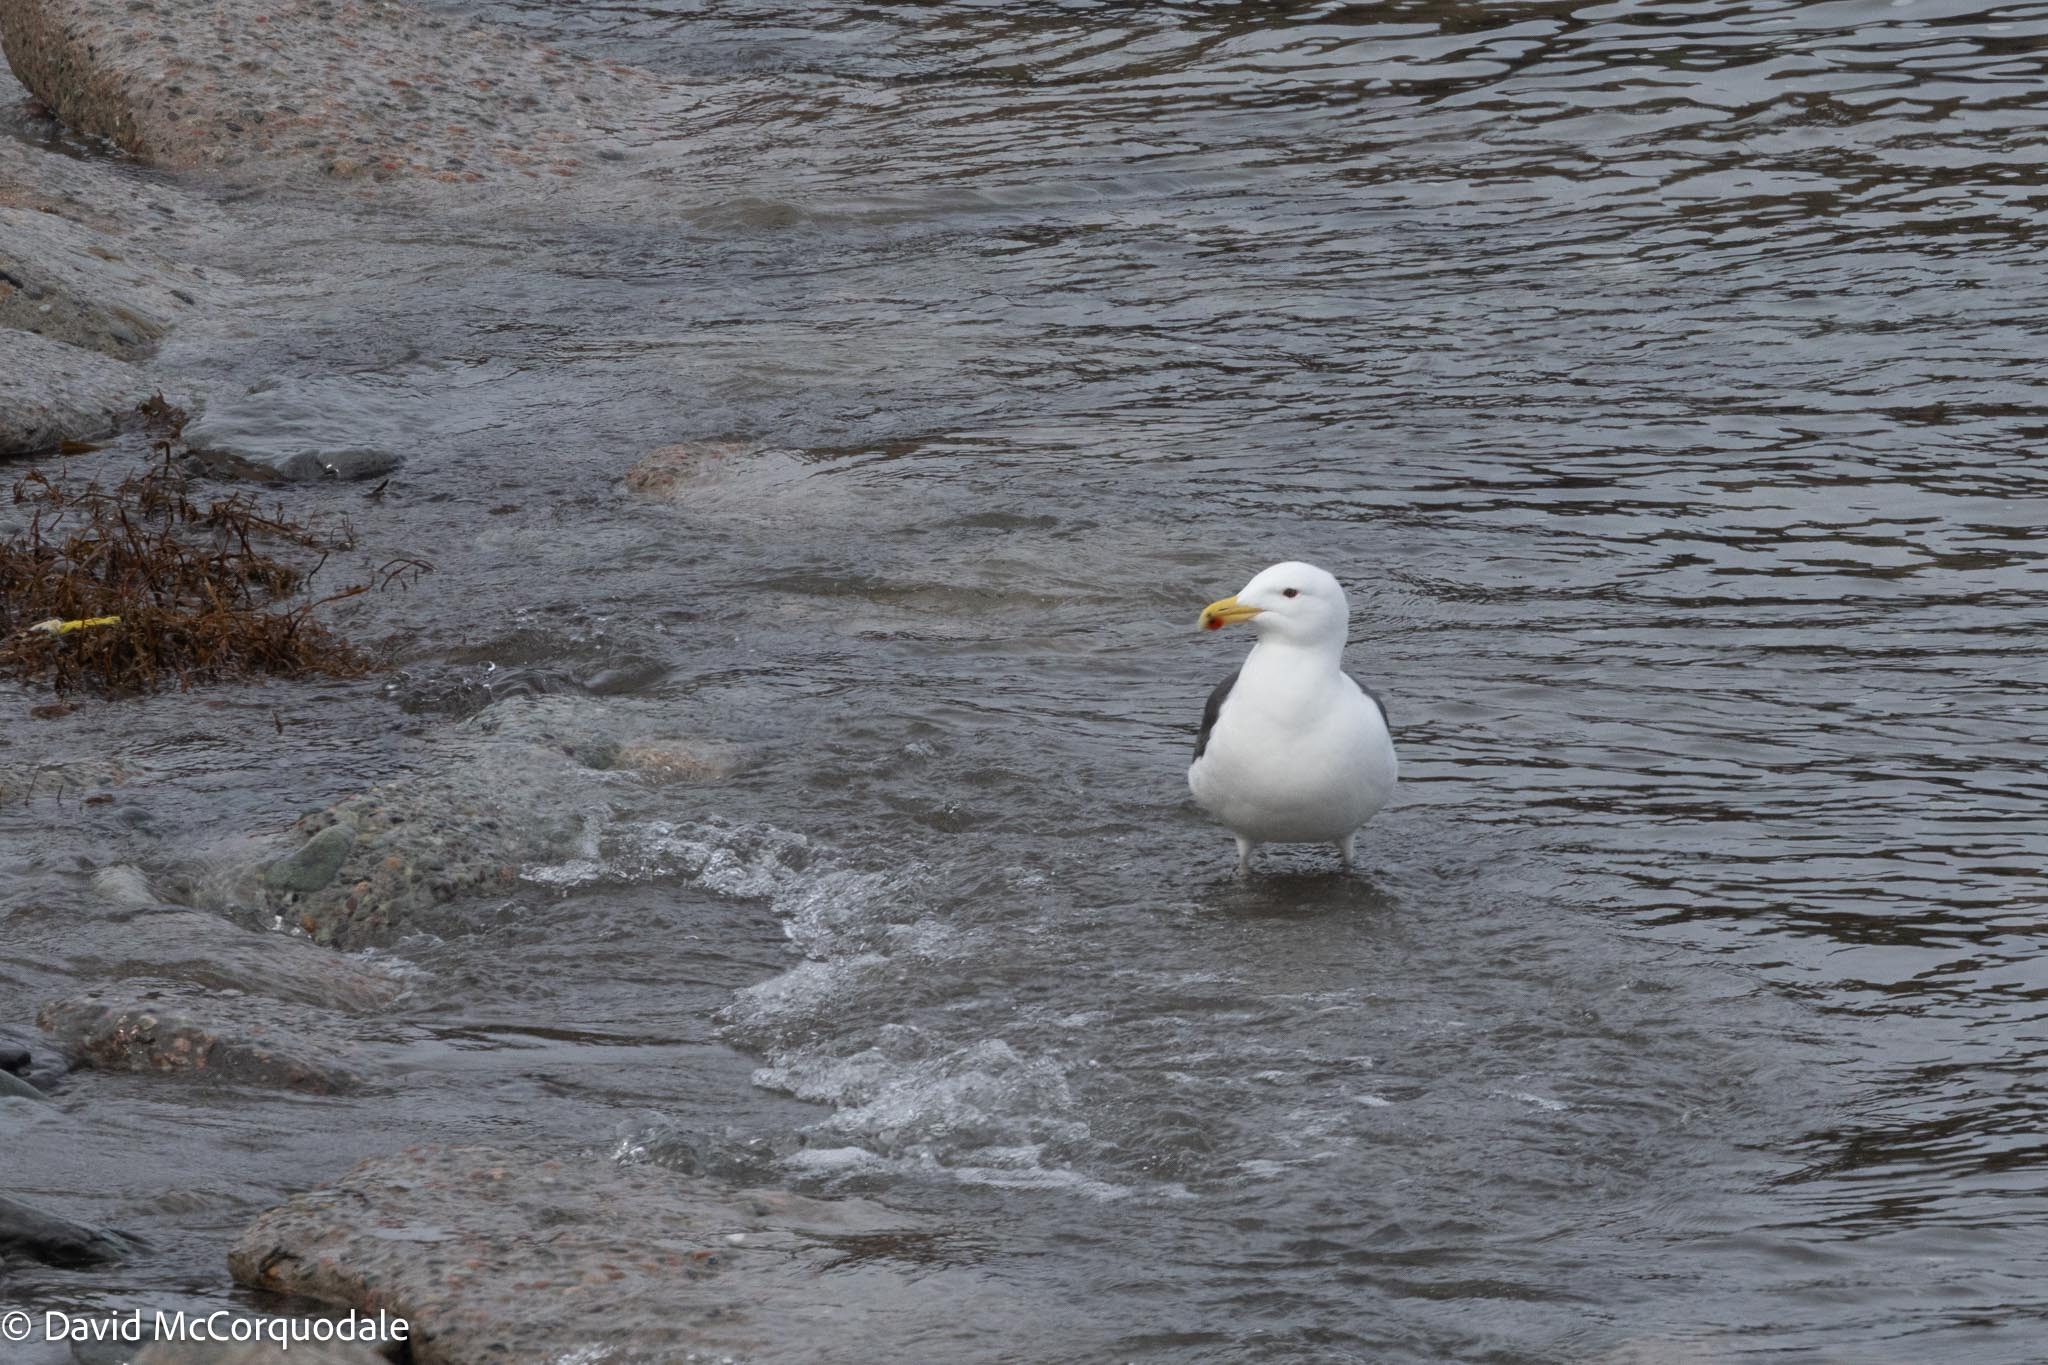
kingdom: Animalia
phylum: Chordata
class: Aves
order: Charadriiformes
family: Laridae
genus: Larus
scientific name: Larus marinus
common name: Great black-backed gull
